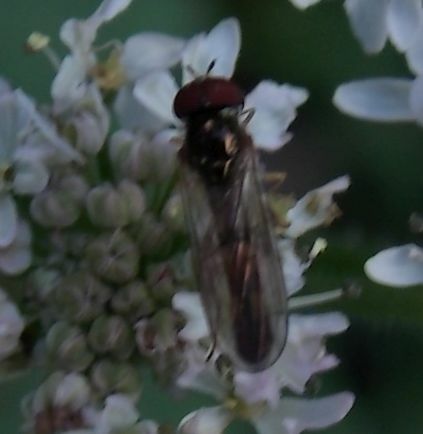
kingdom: Animalia
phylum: Arthropoda
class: Insecta
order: Diptera
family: Syrphidae
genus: Melanostoma
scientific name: Melanostoma scalare
